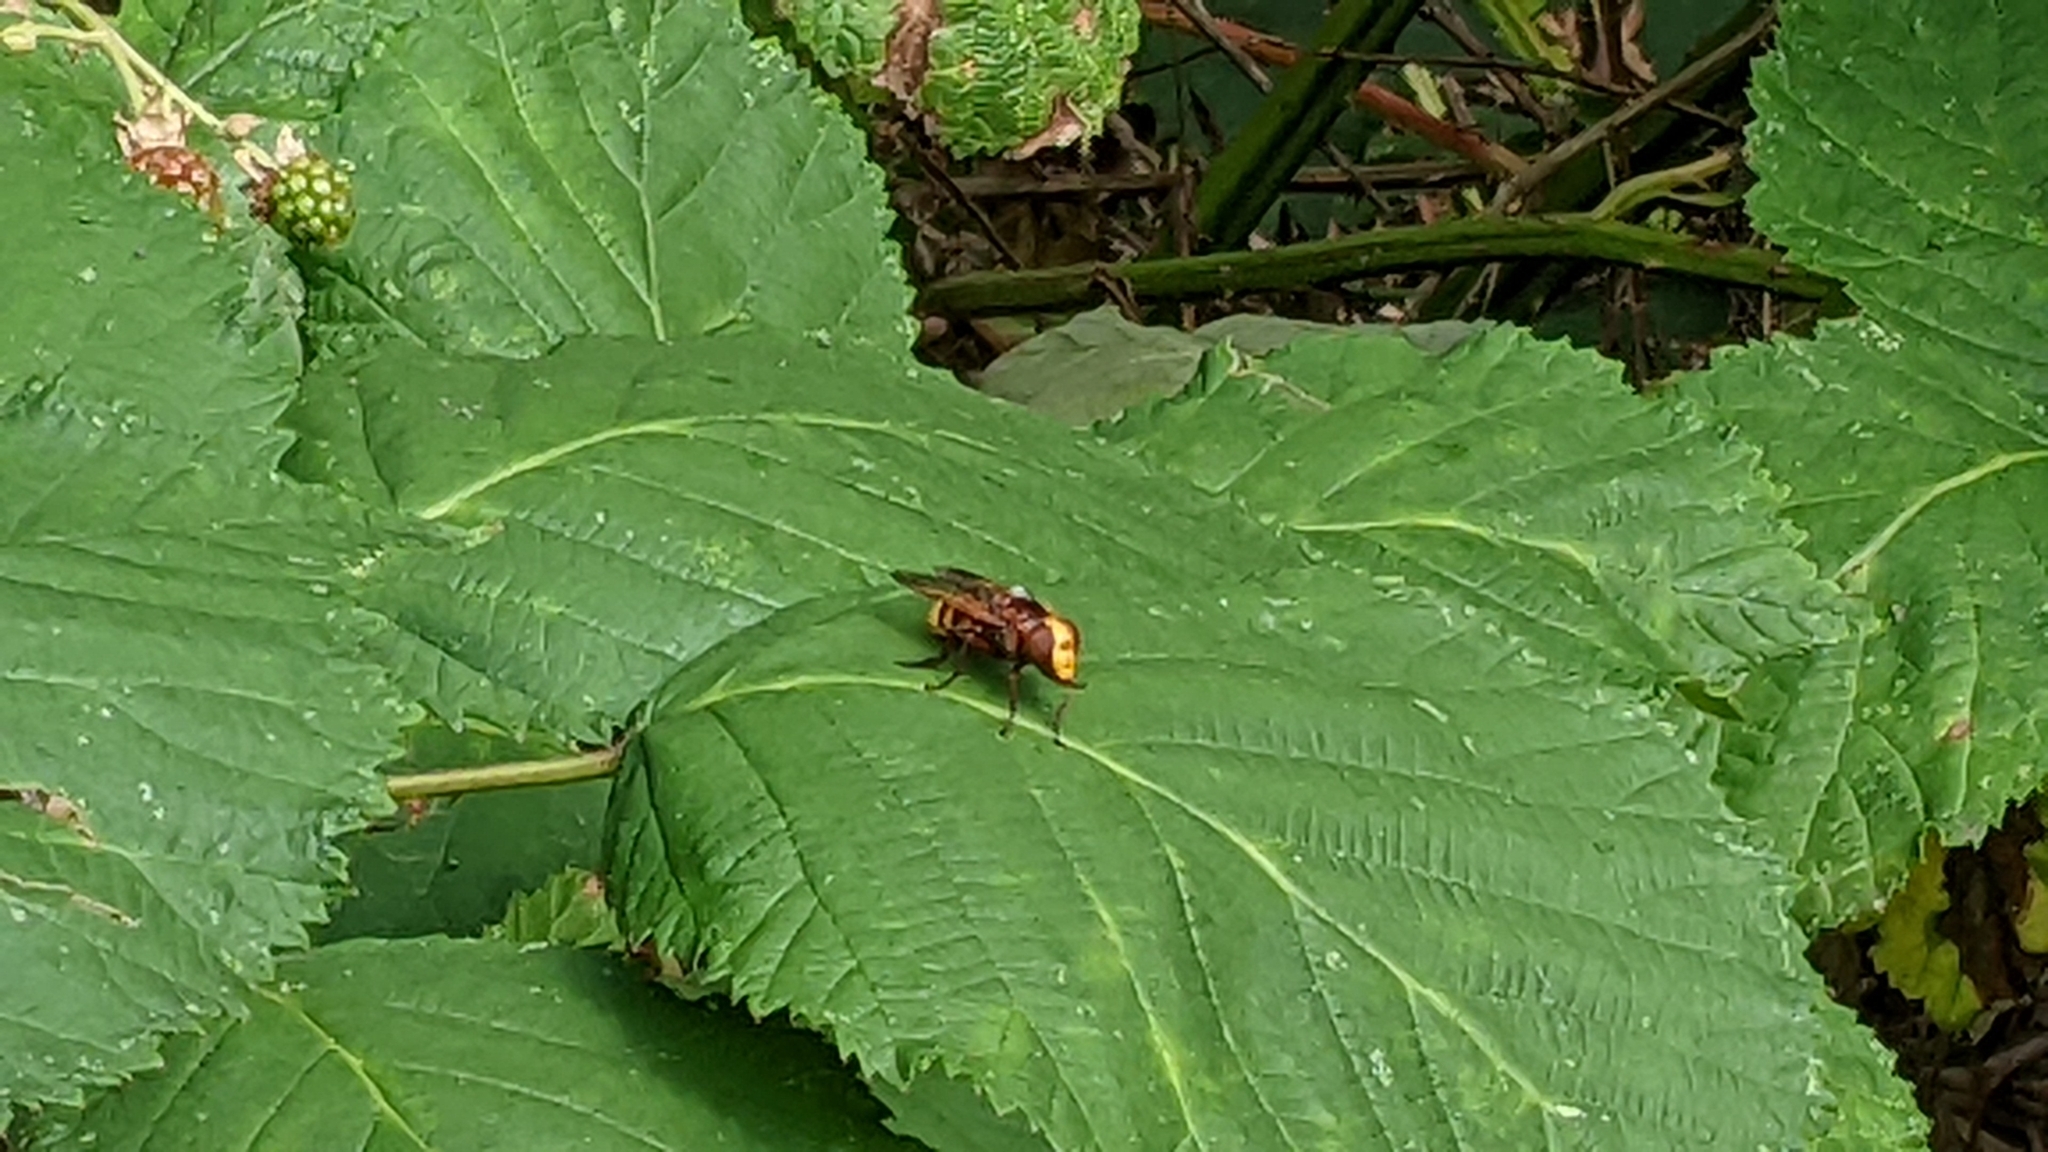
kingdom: Animalia
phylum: Arthropoda
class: Insecta
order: Diptera
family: Syrphidae
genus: Volucella
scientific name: Volucella zonaria
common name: Hornet hoverfly
